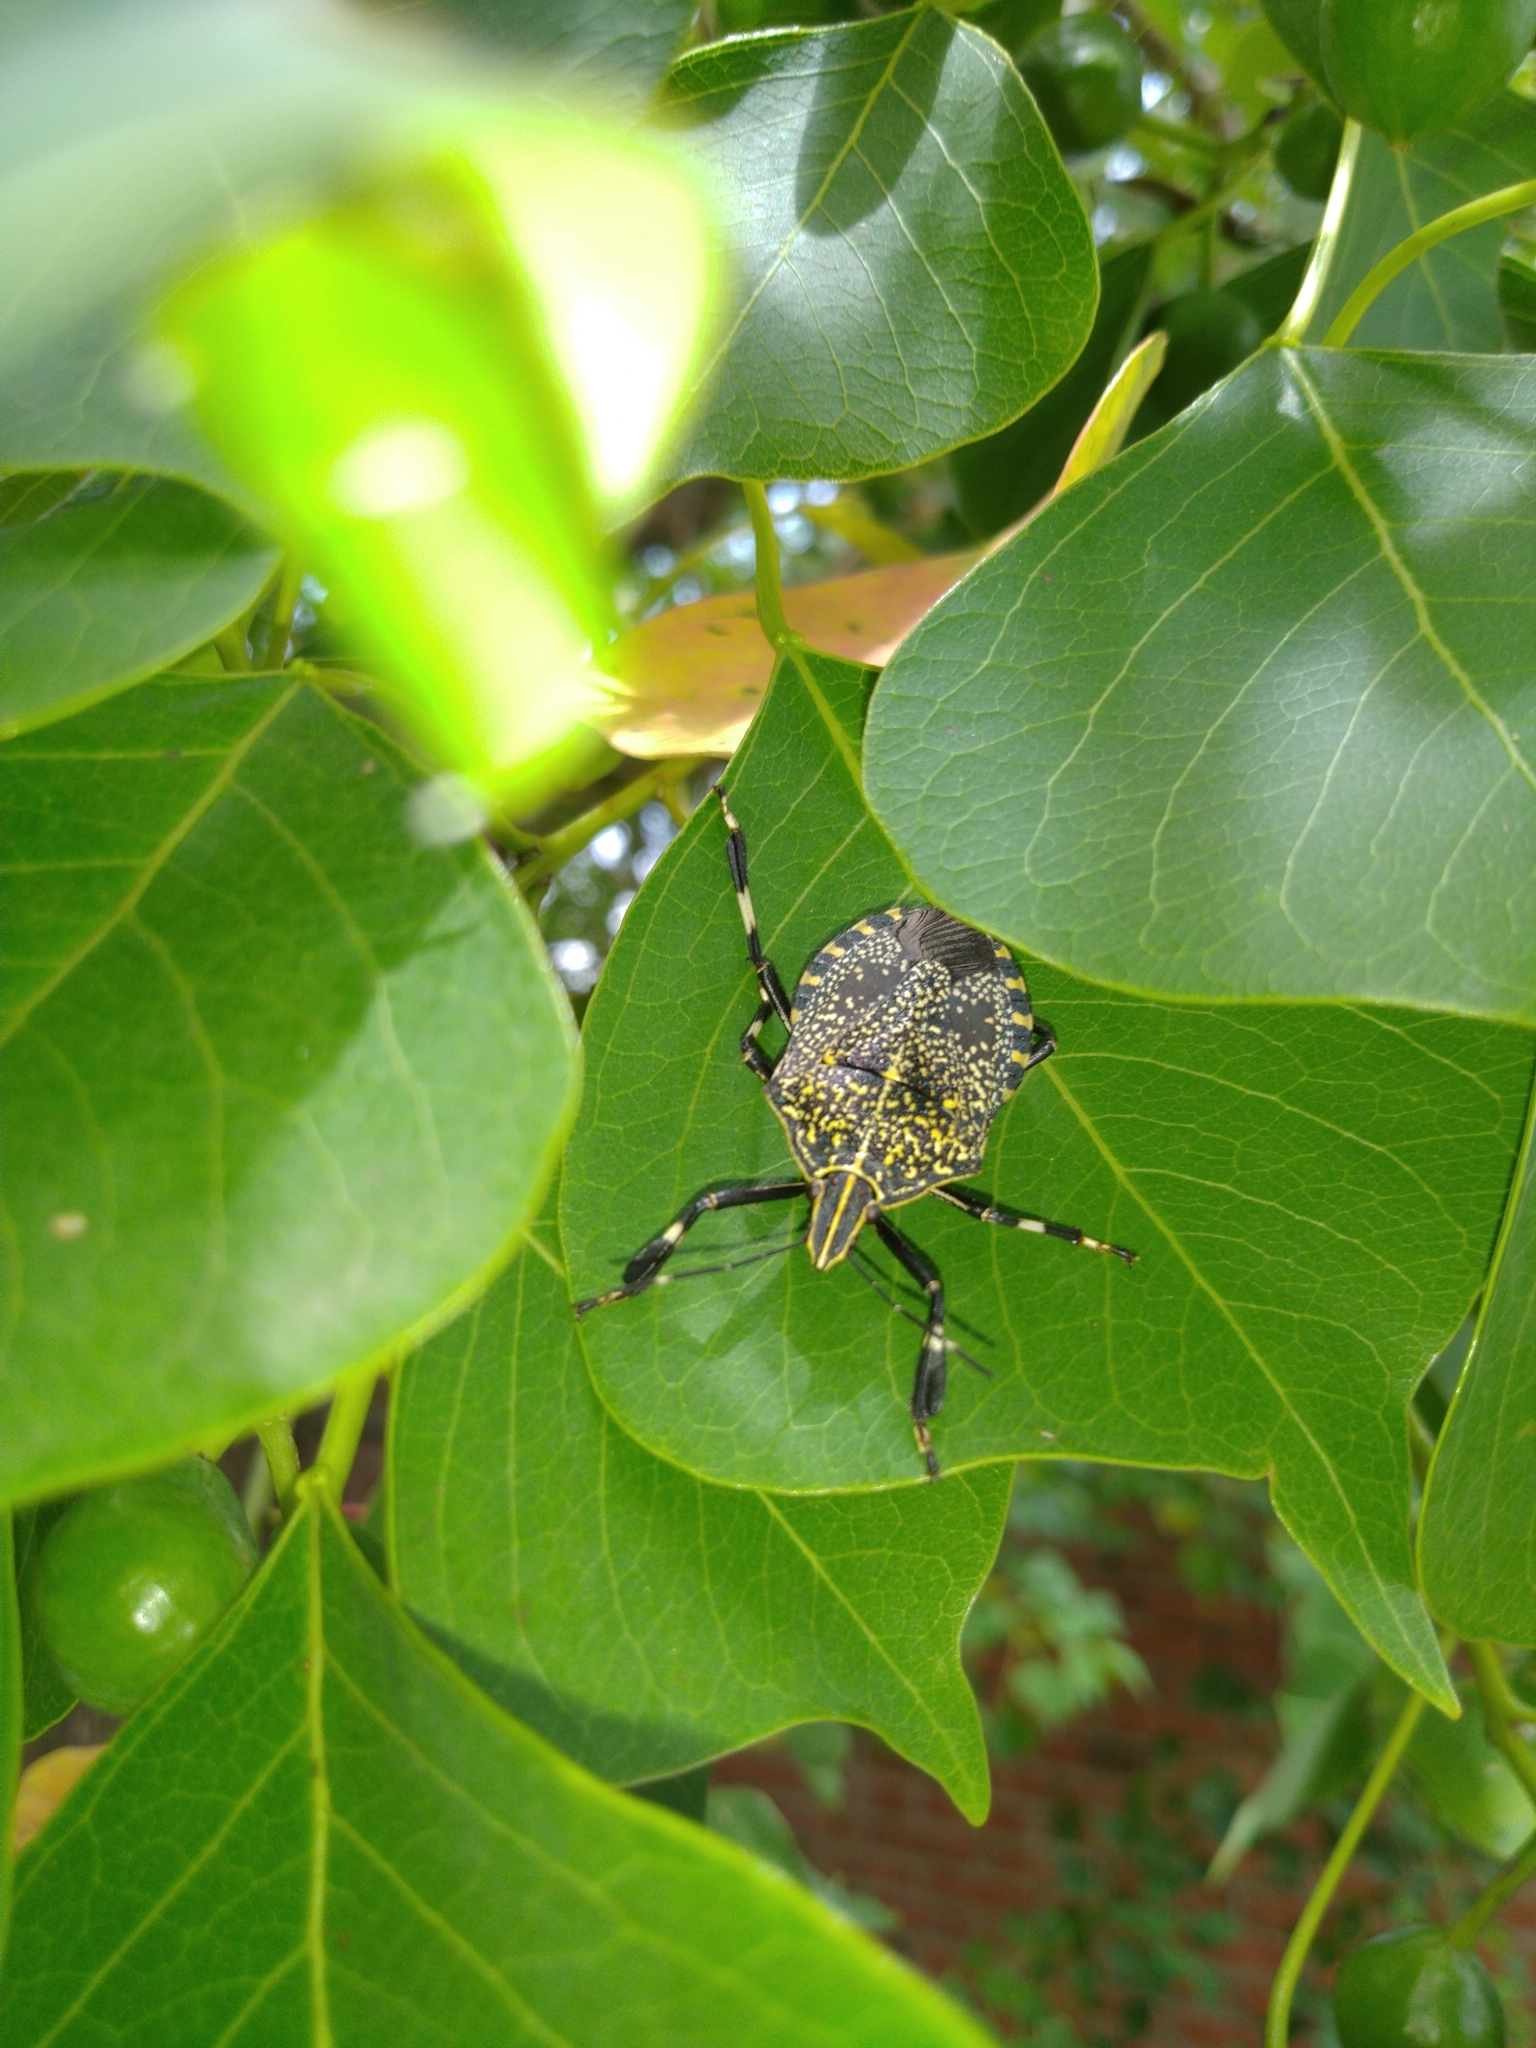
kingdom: Animalia
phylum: Arthropoda
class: Insecta
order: Hemiptera
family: Pentatomidae
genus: Erthesina
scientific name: Erthesina fullo
